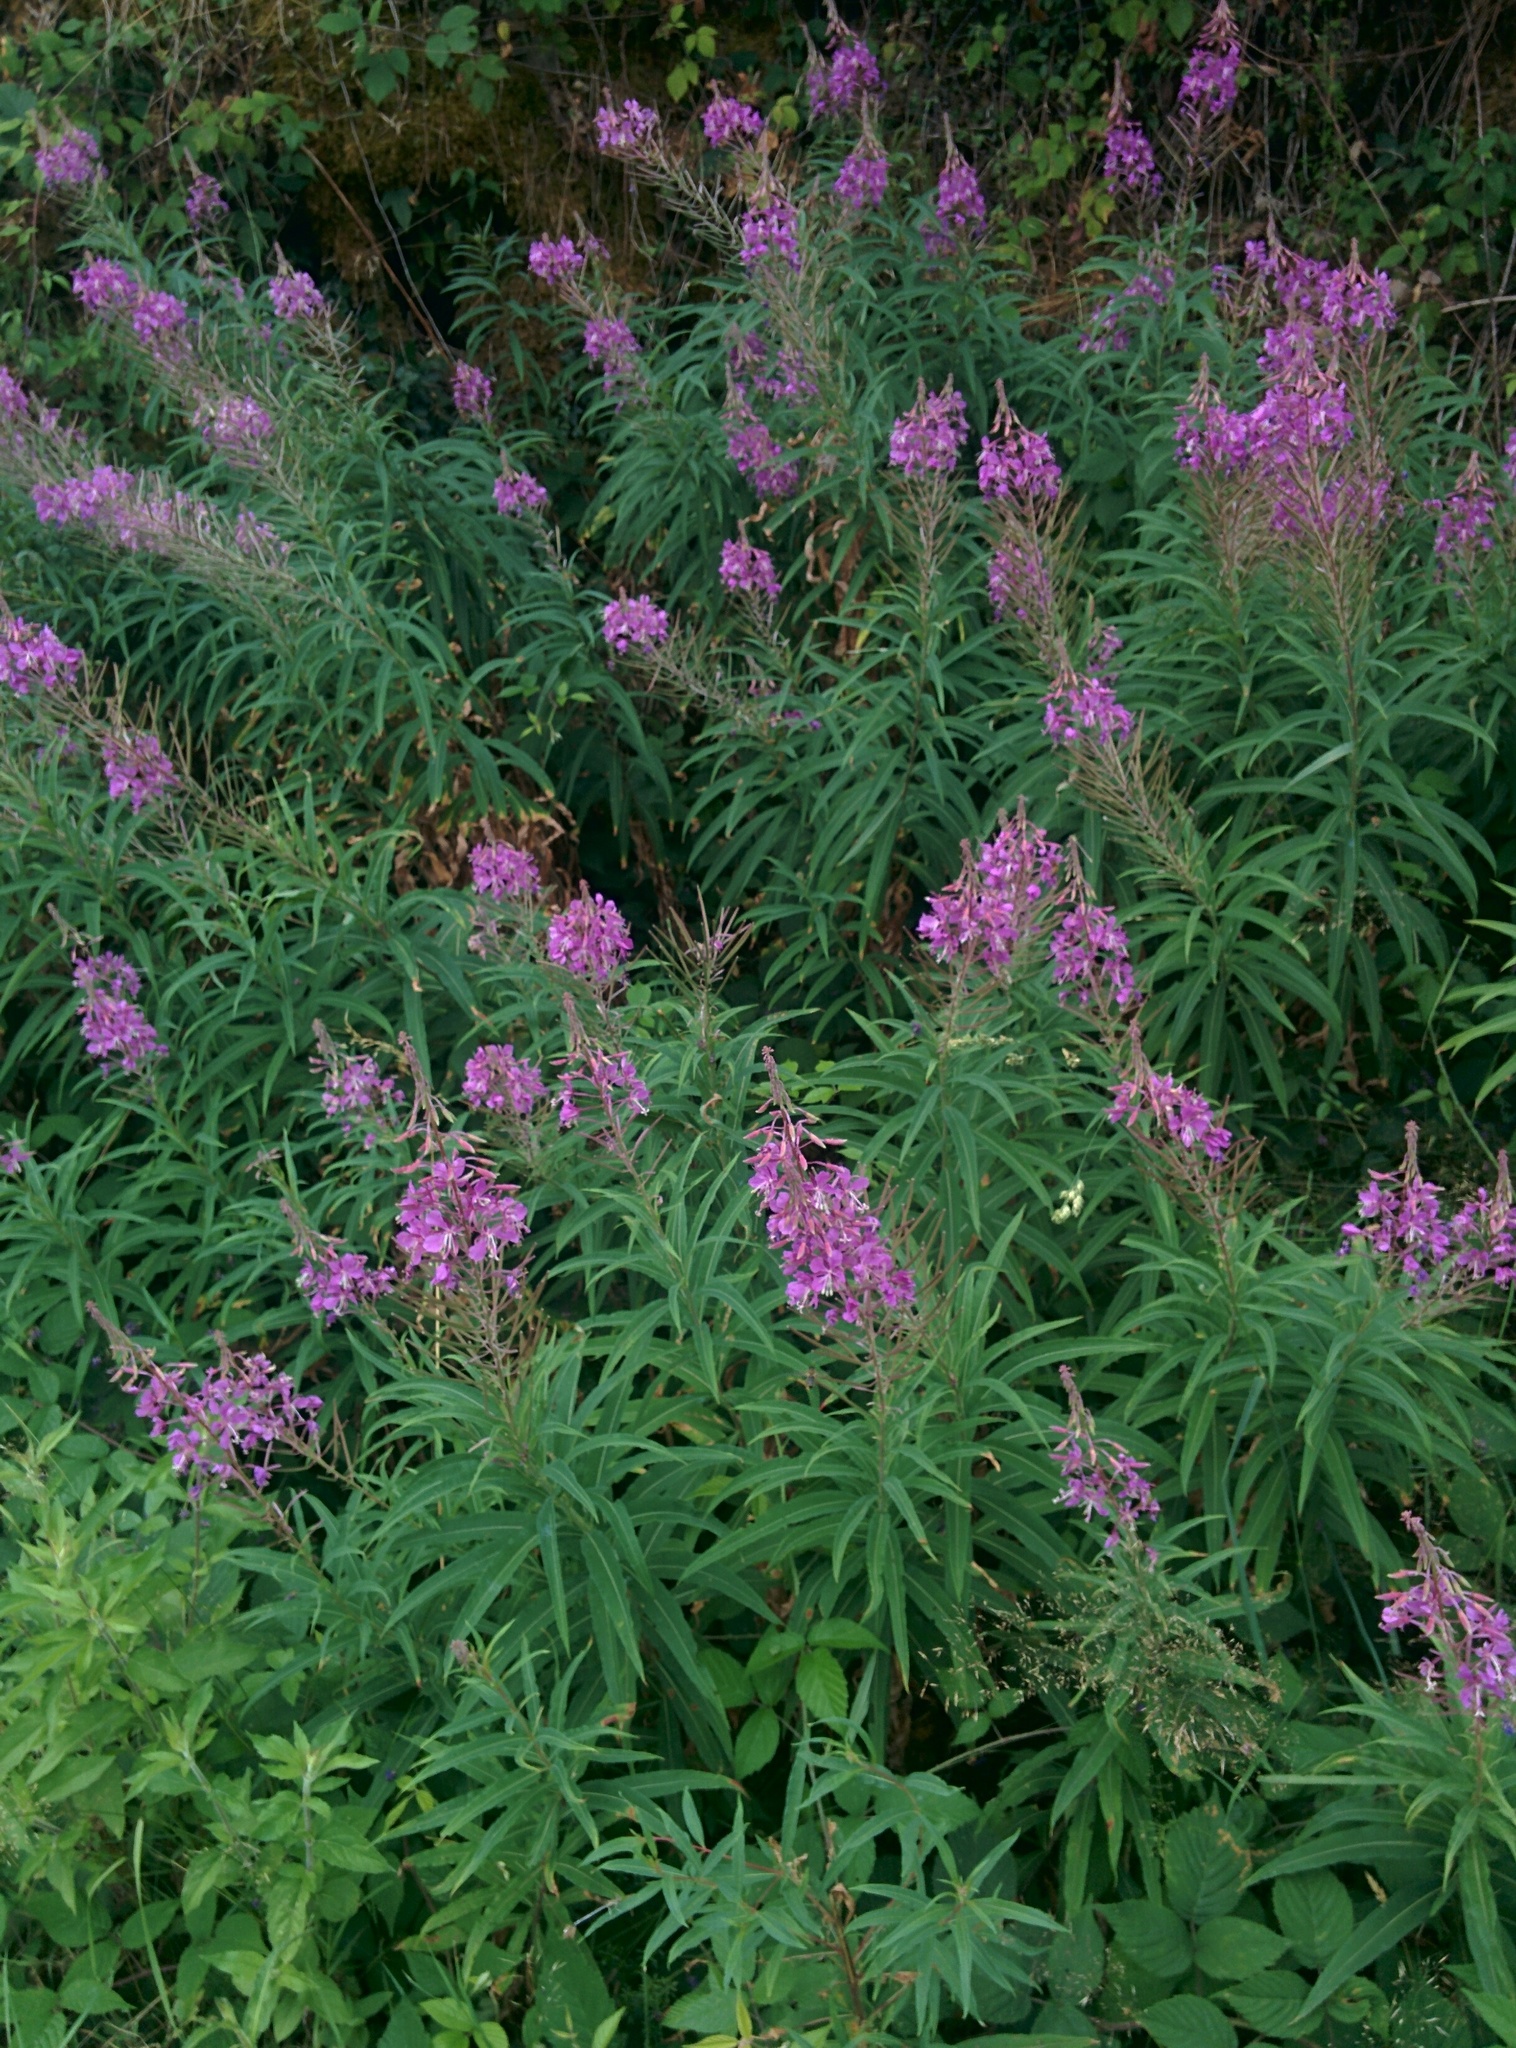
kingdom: Plantae
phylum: Tracheophyta
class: Magnoliopsida
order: Myrtales
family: Onagraceae
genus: Chamaenerion
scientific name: Chamaenerion angustifolium
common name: Fireweed
